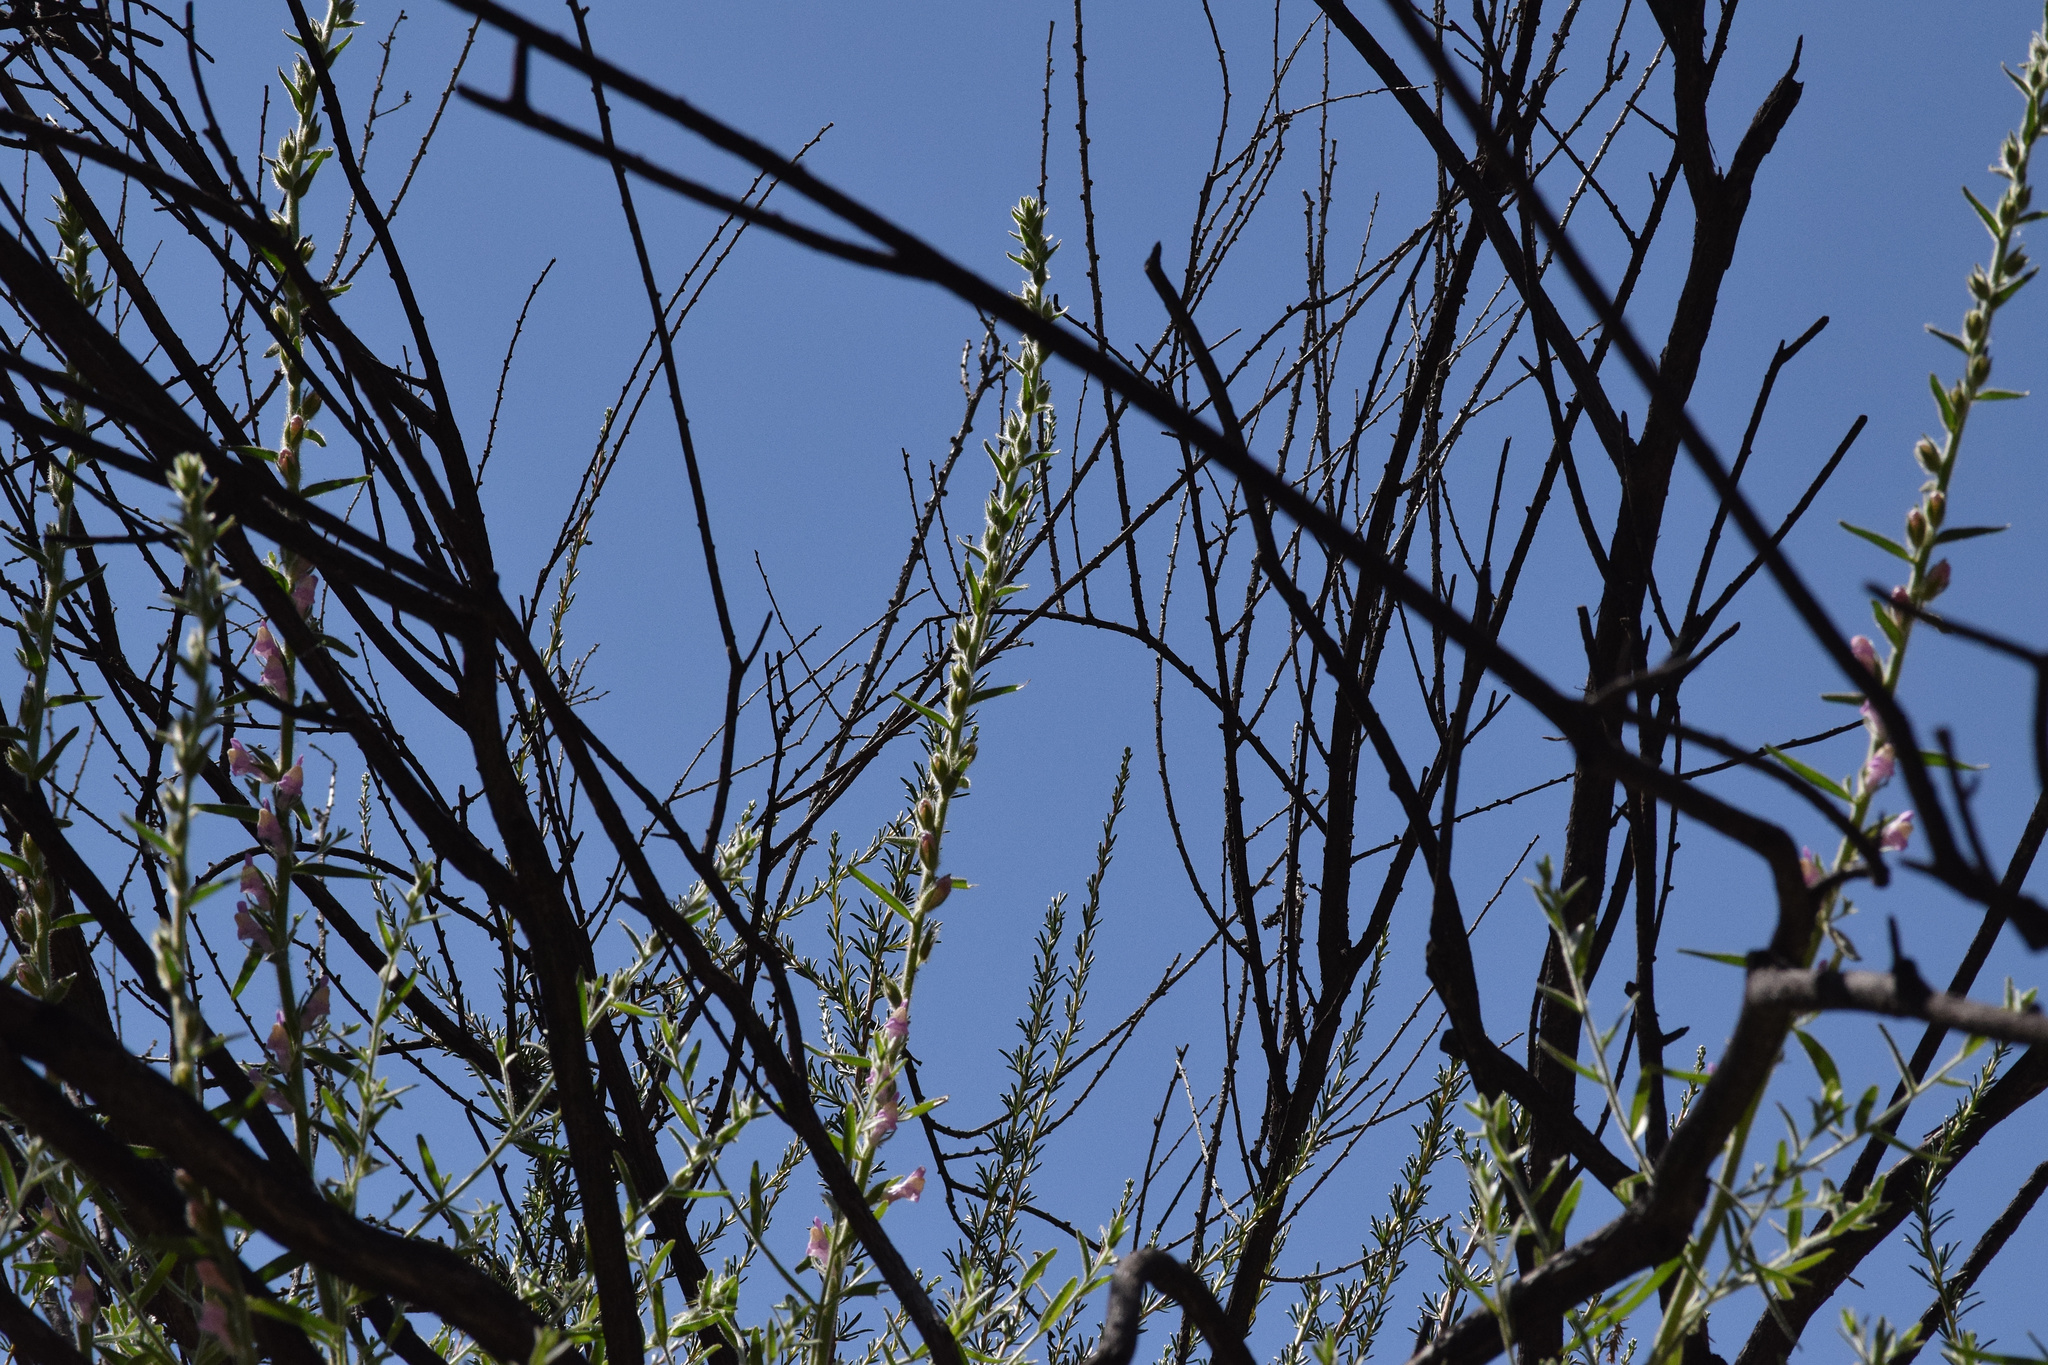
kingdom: Plantae
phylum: Tracheophyta
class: Magnoliopsida
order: Lamiales
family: Plantaginaceae
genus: Sairocarpus
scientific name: Sairocarpus multiflorus
